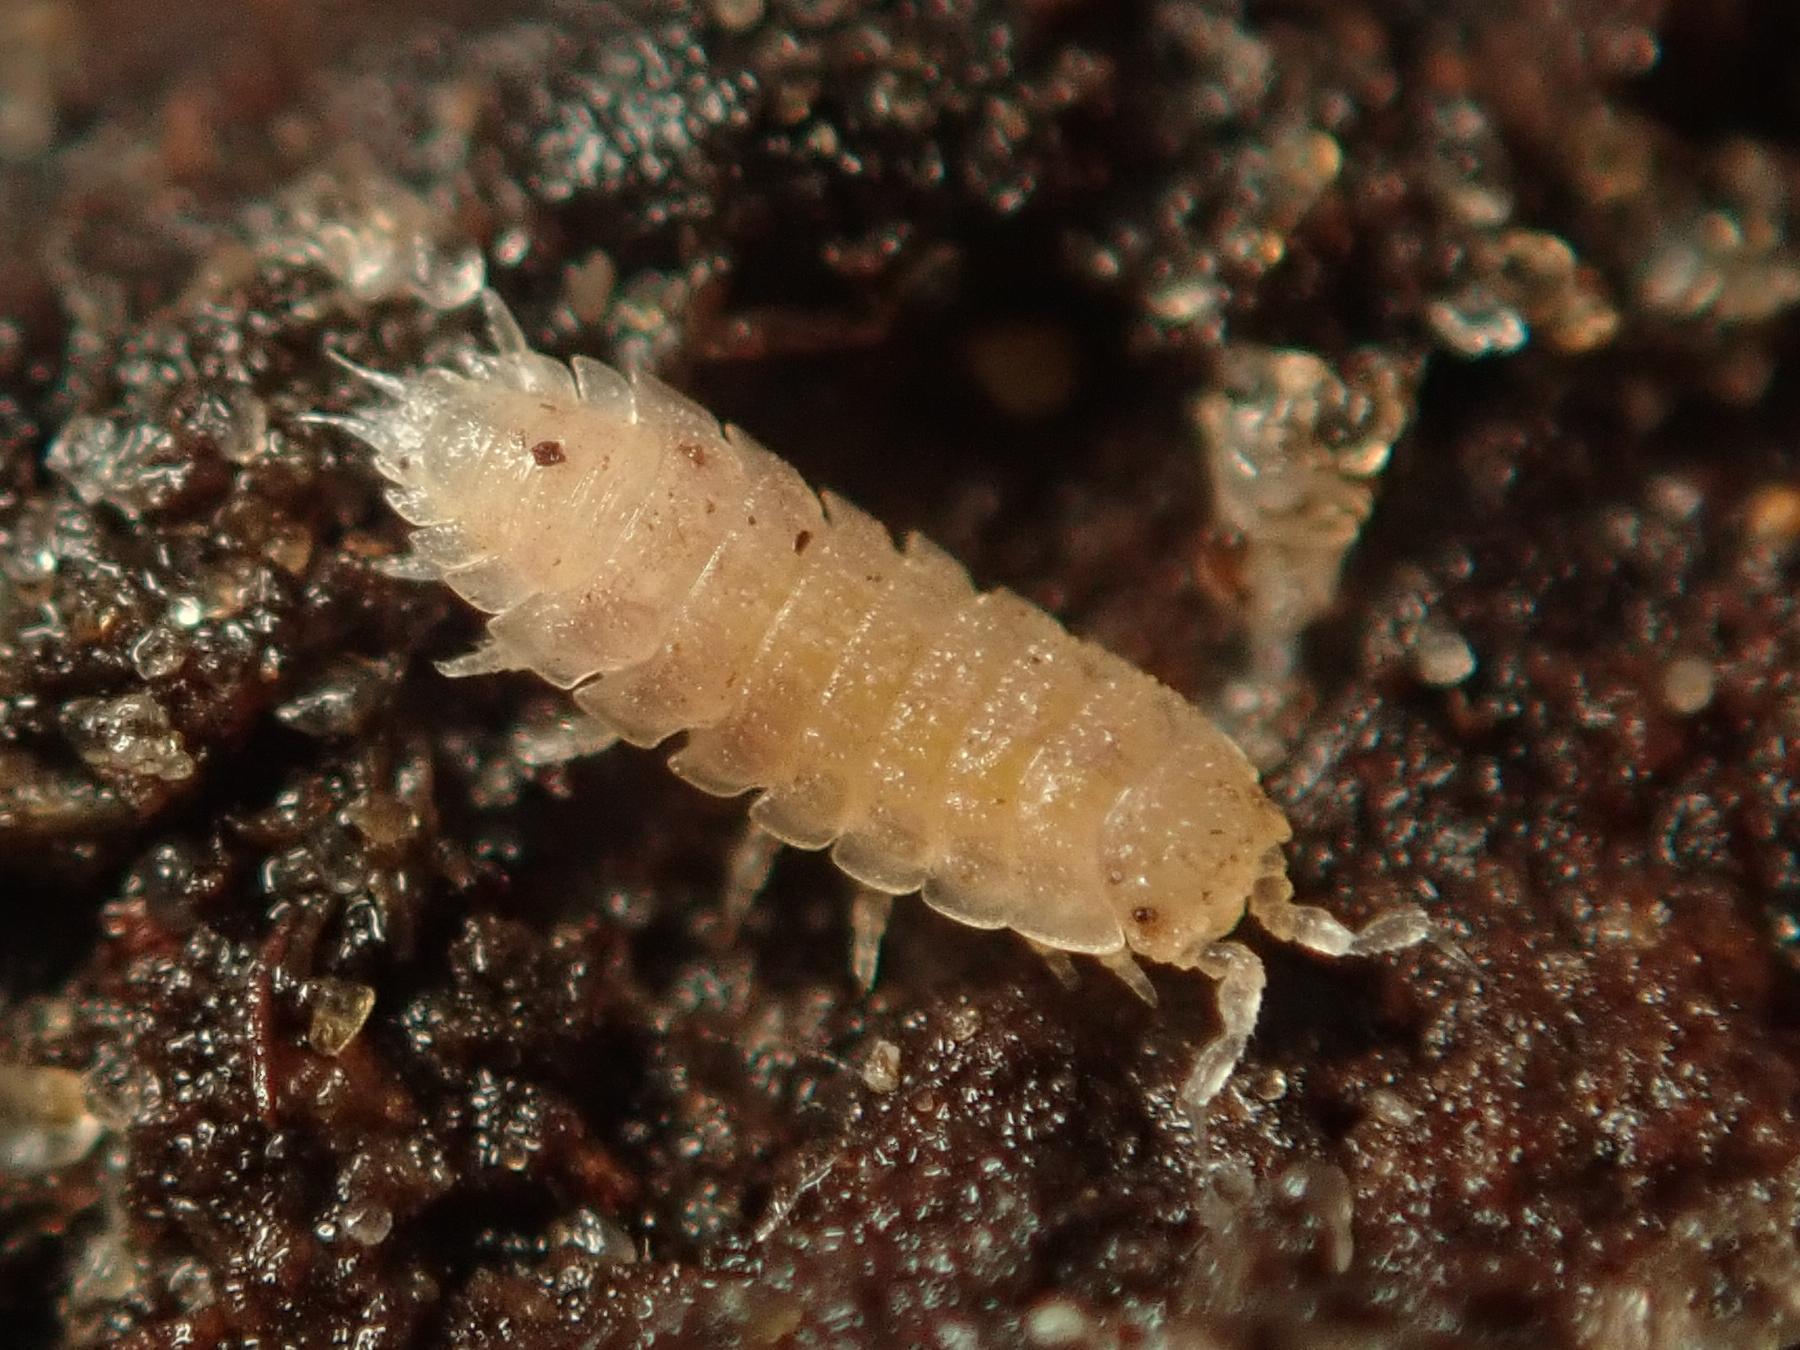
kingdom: Animalia
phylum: Arthropoda
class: Malacostraca
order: Isopoda
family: Trichoniscidae
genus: Haplophthalmus
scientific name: Haplophthalmus danicus
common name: Pillbug
